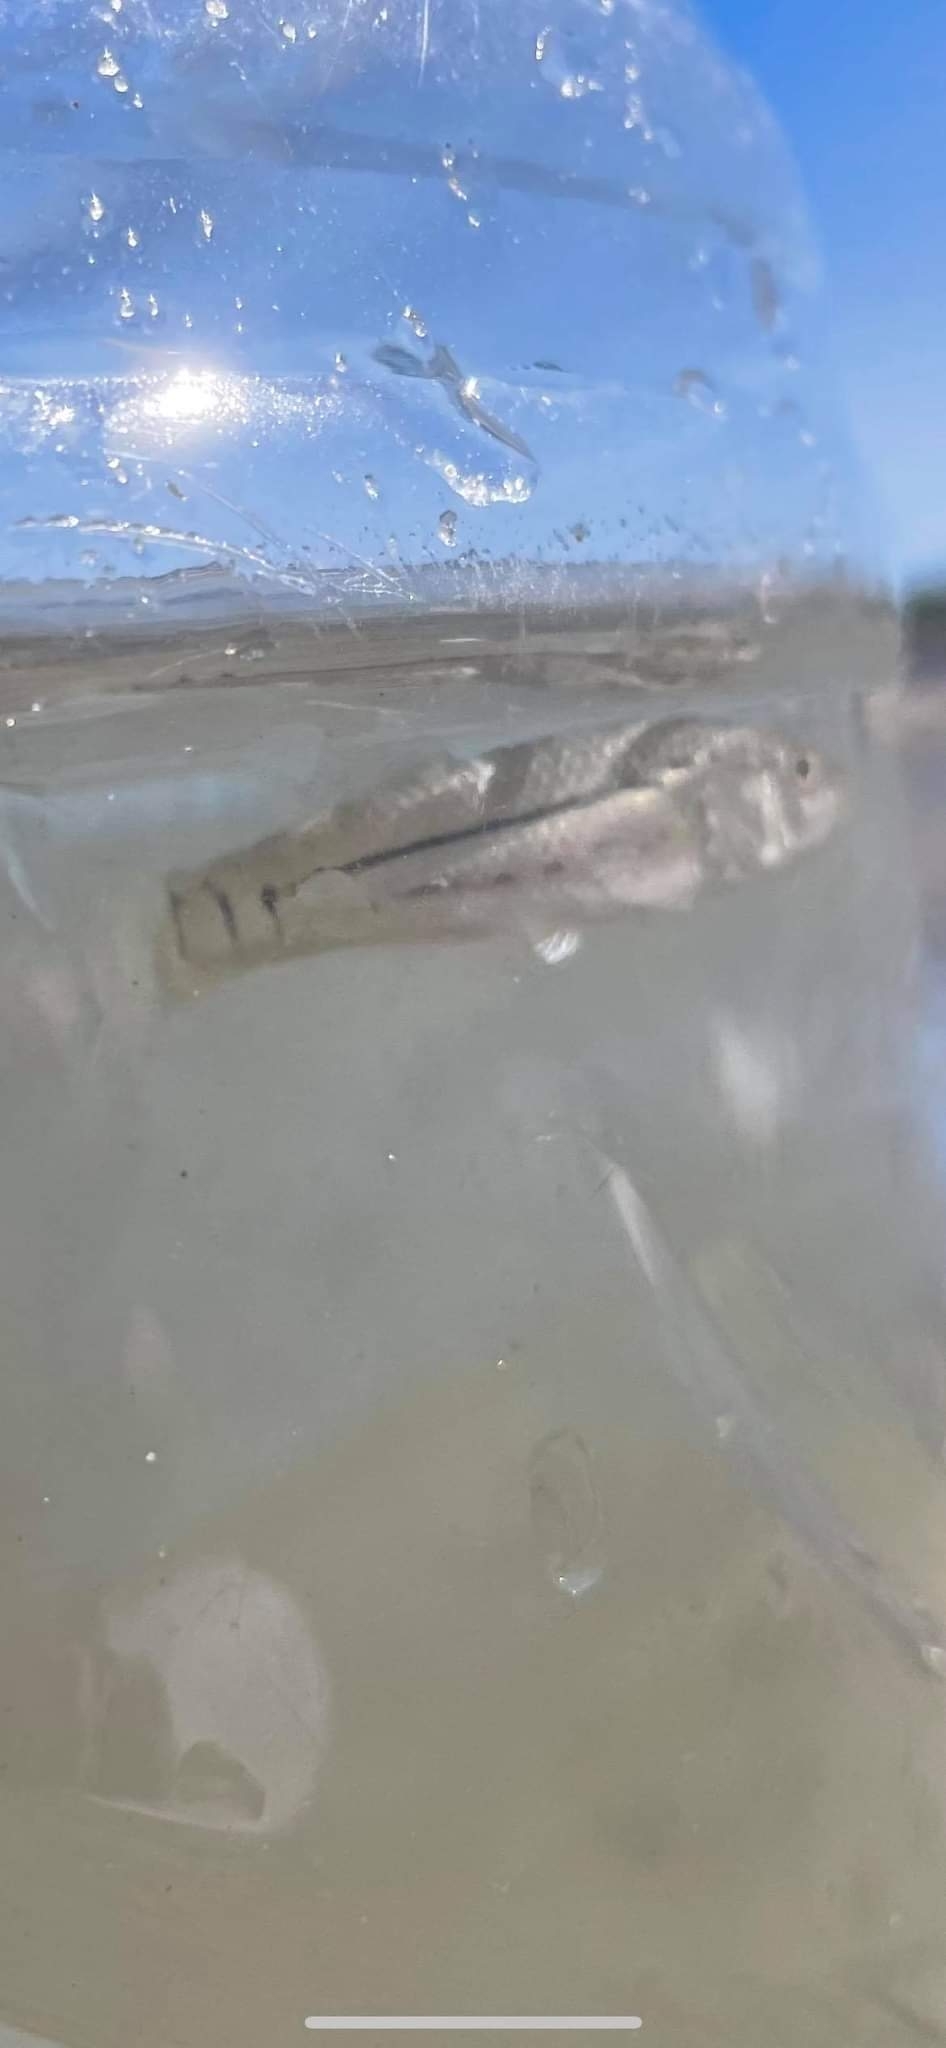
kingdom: Animalia
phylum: Chordata
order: Cyprinodontiformes
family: Fundulidae
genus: Fundulus
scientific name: Fundulus majalis
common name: Striped killifish
